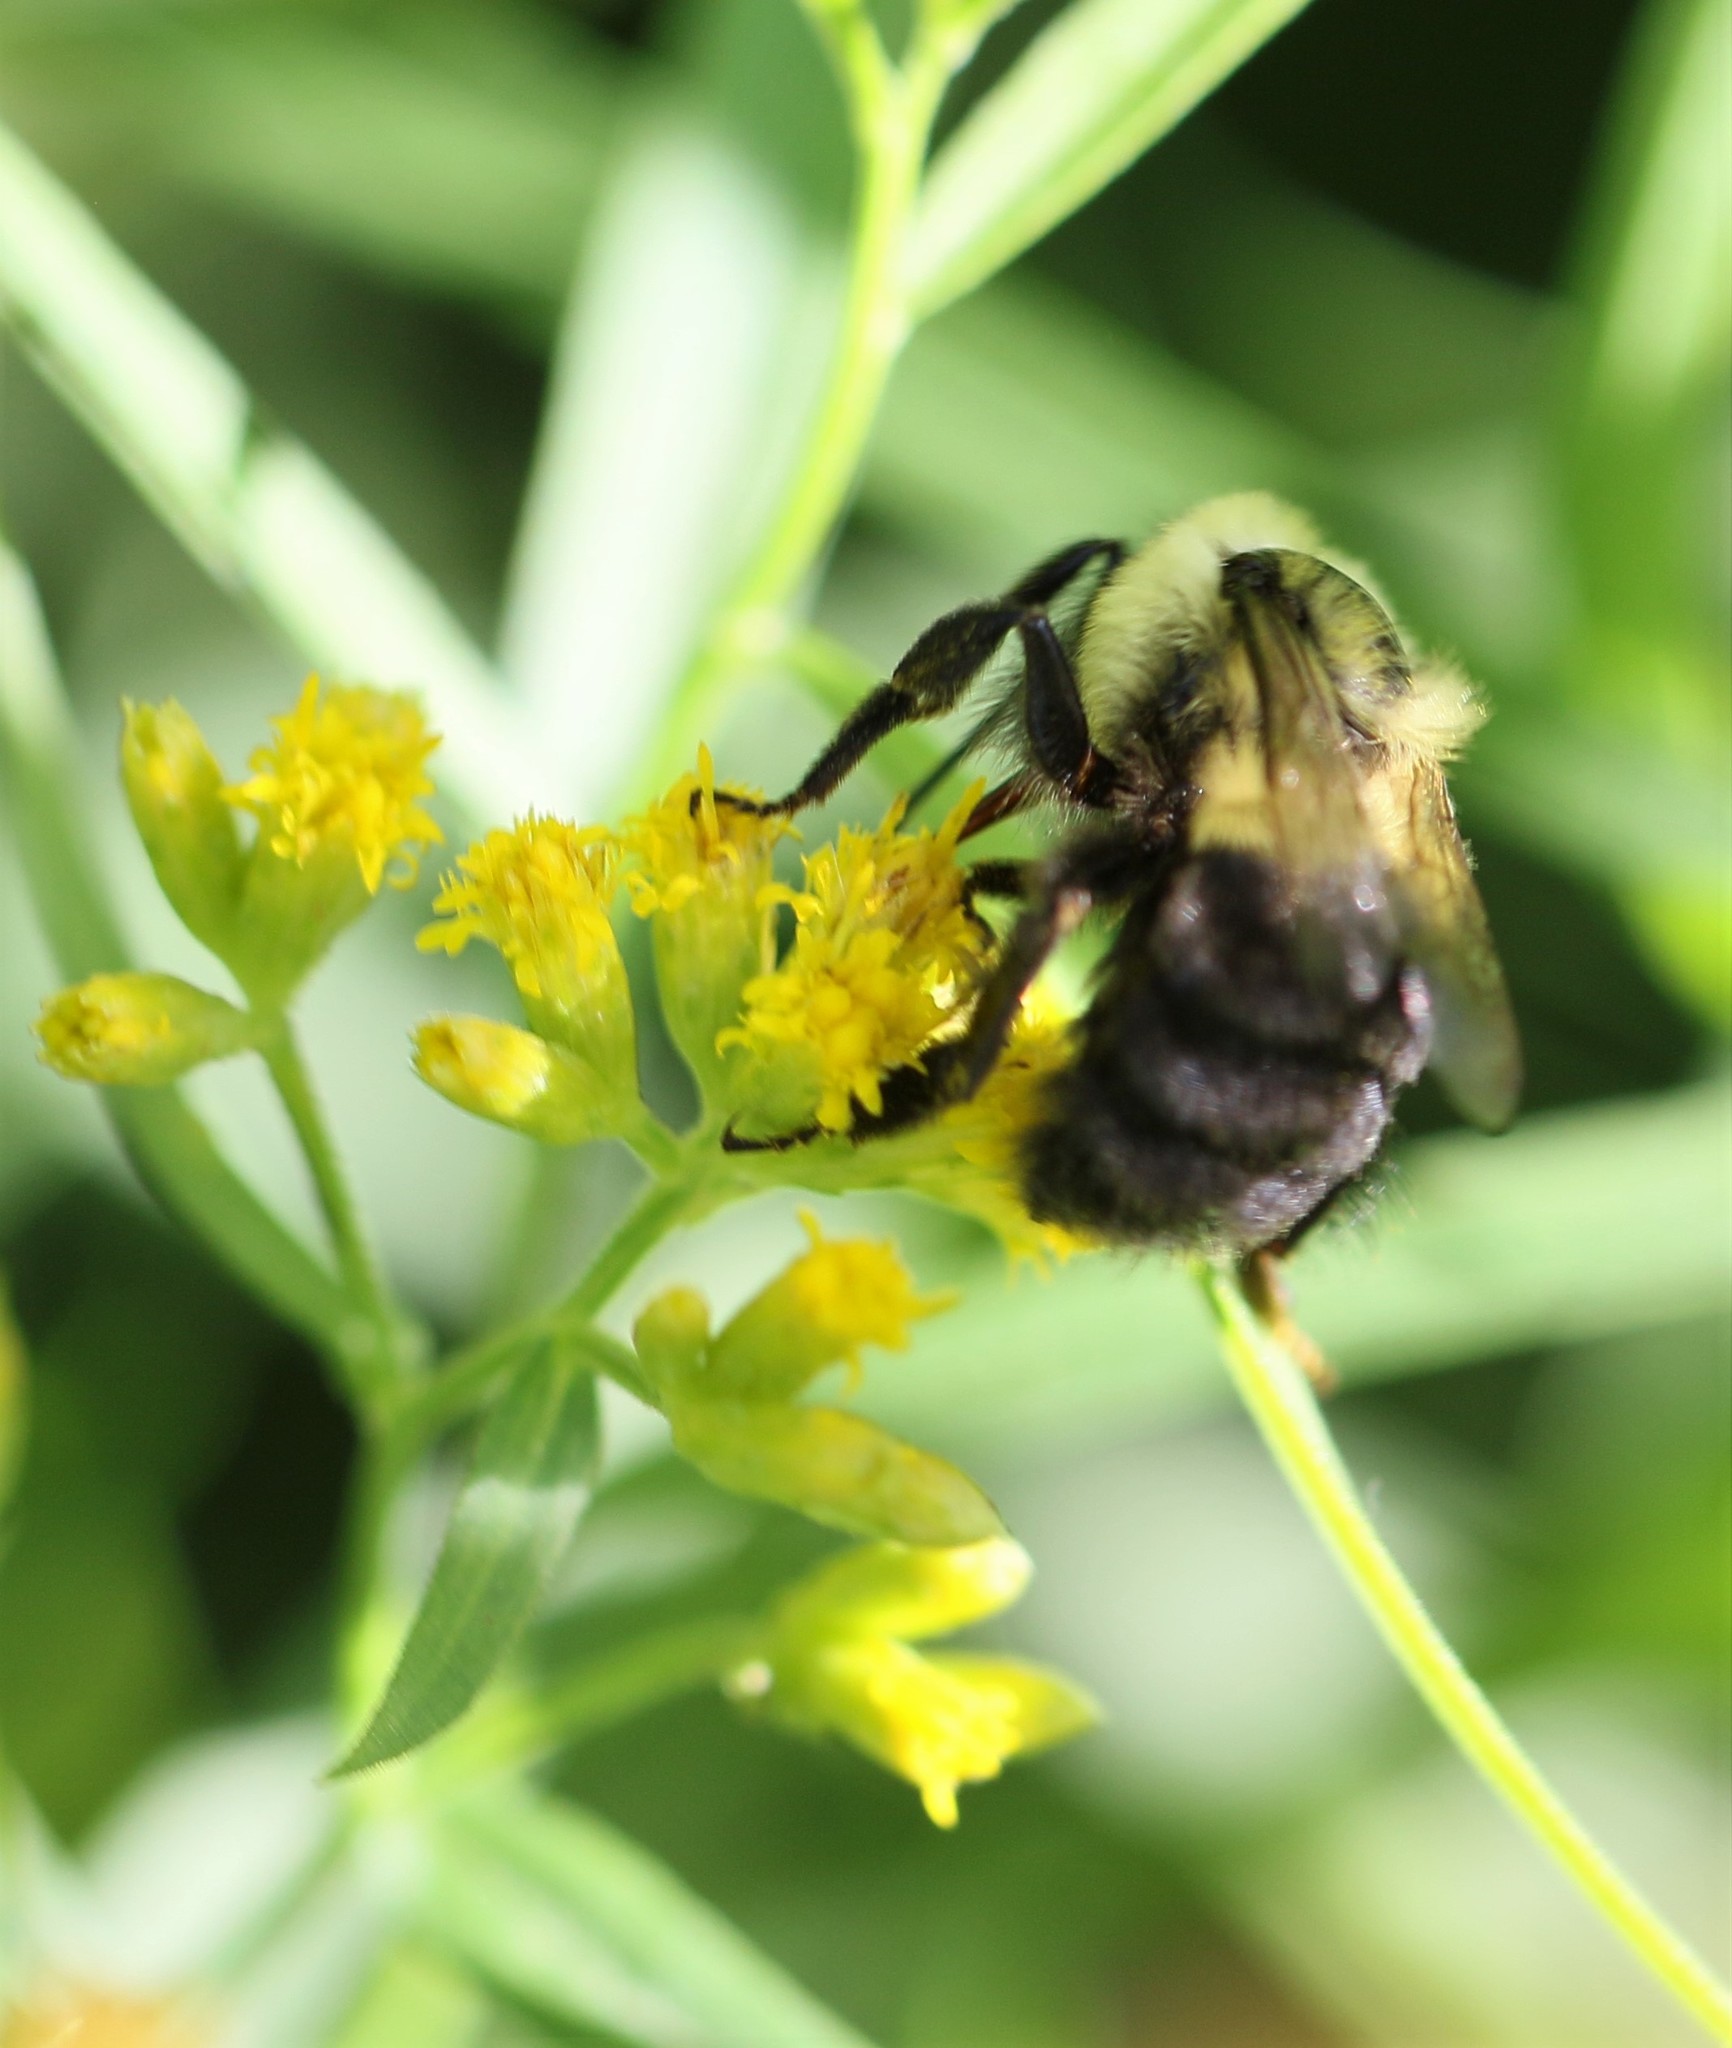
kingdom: Animalia
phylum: Arthropoda
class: Insecta
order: Hymenoptera
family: Apidae
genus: Bombus
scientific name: Bombus impatiens
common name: Common eastern bumble bee
